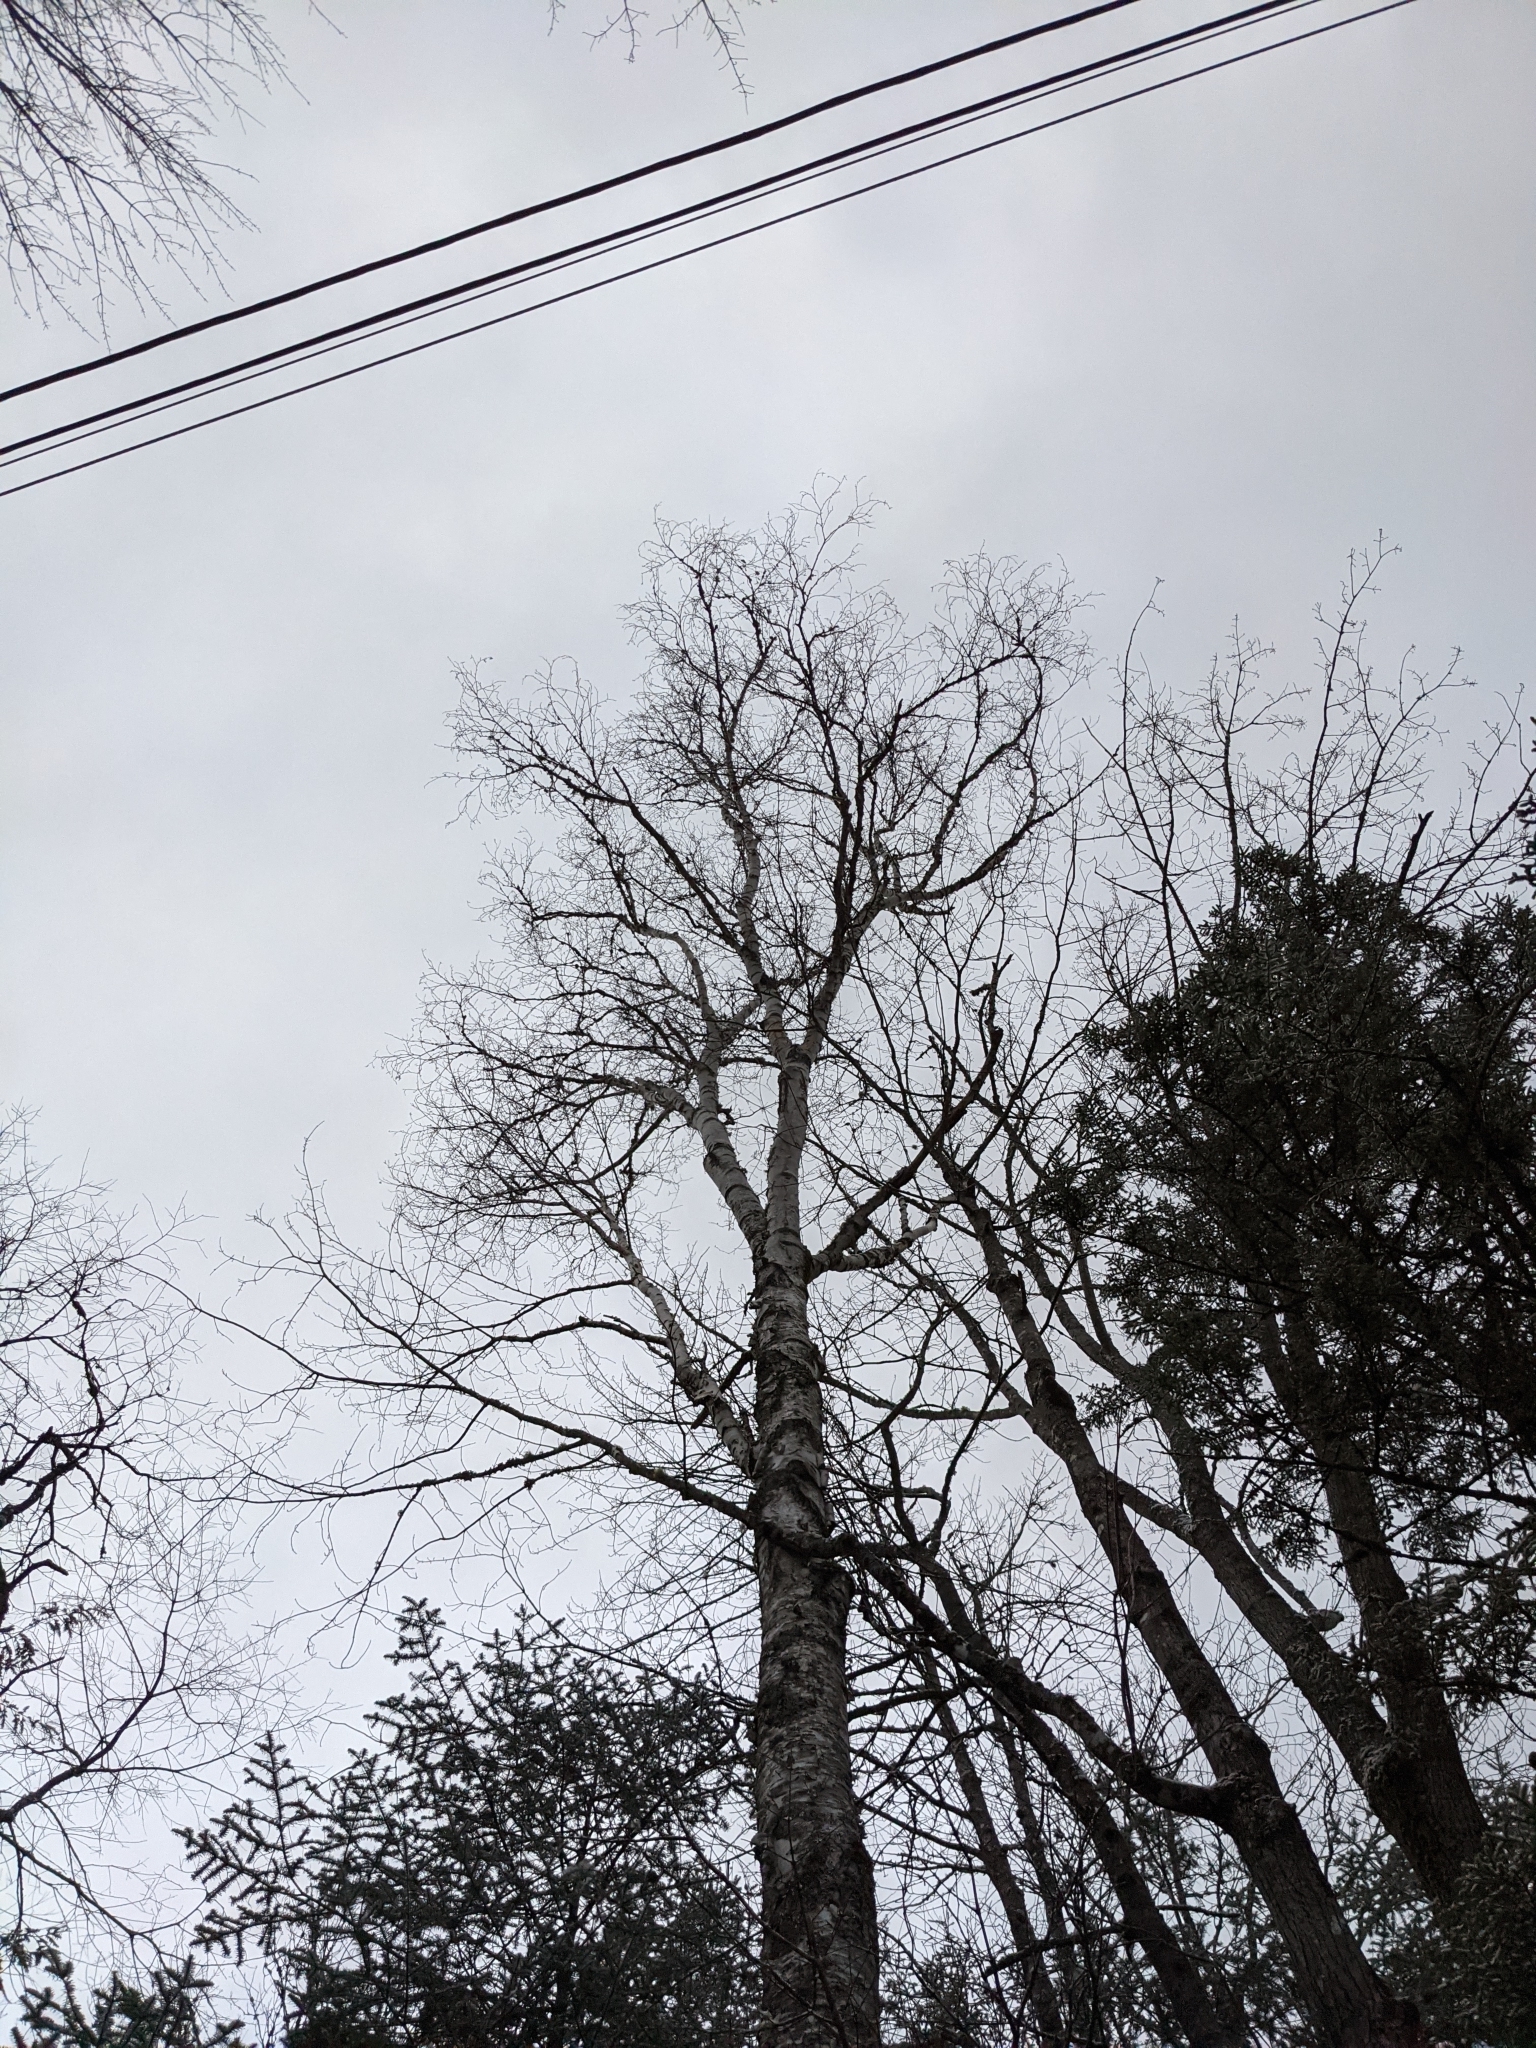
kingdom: Plantae
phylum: Tracheophyta
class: Magnoliopsida
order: Fagales
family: Betulaceae
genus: Betula
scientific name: Betula papyrifera
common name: Paper birch
